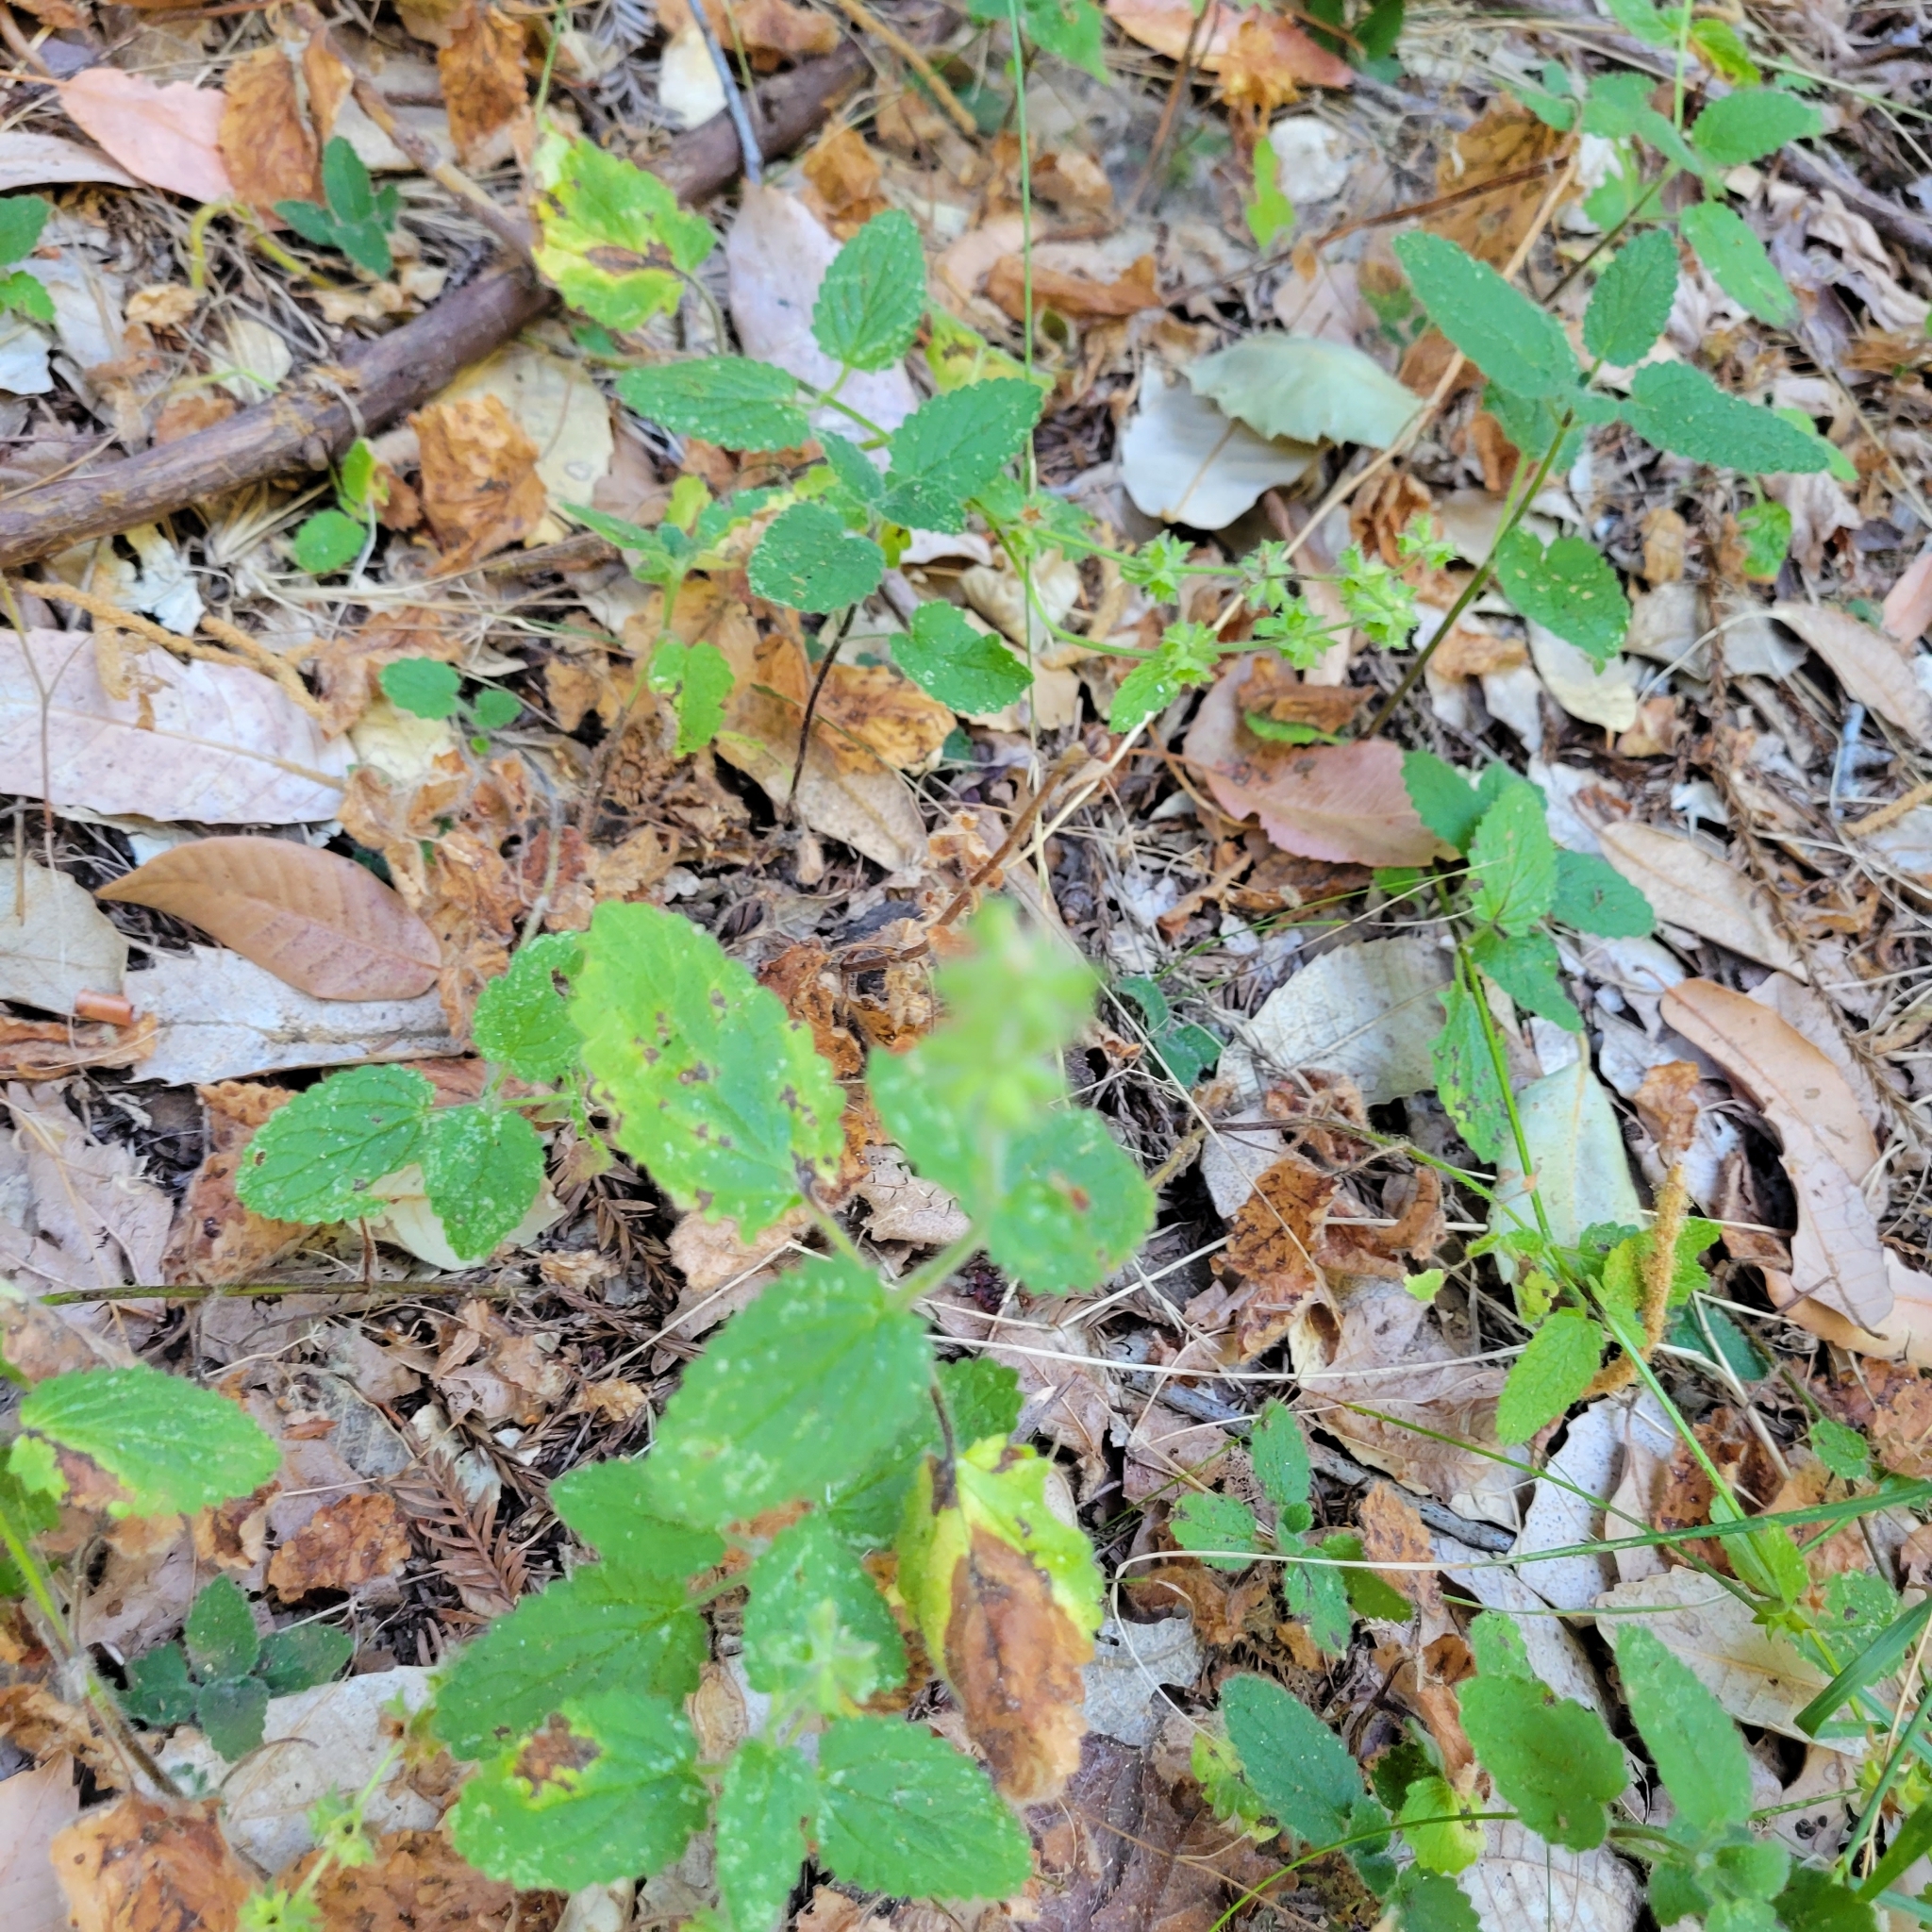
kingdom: Plantae
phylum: Tracheophyta
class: Magnoliopsida
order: Lamiales
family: Lamiaceae
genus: Stachys
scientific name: Stachys rigida
